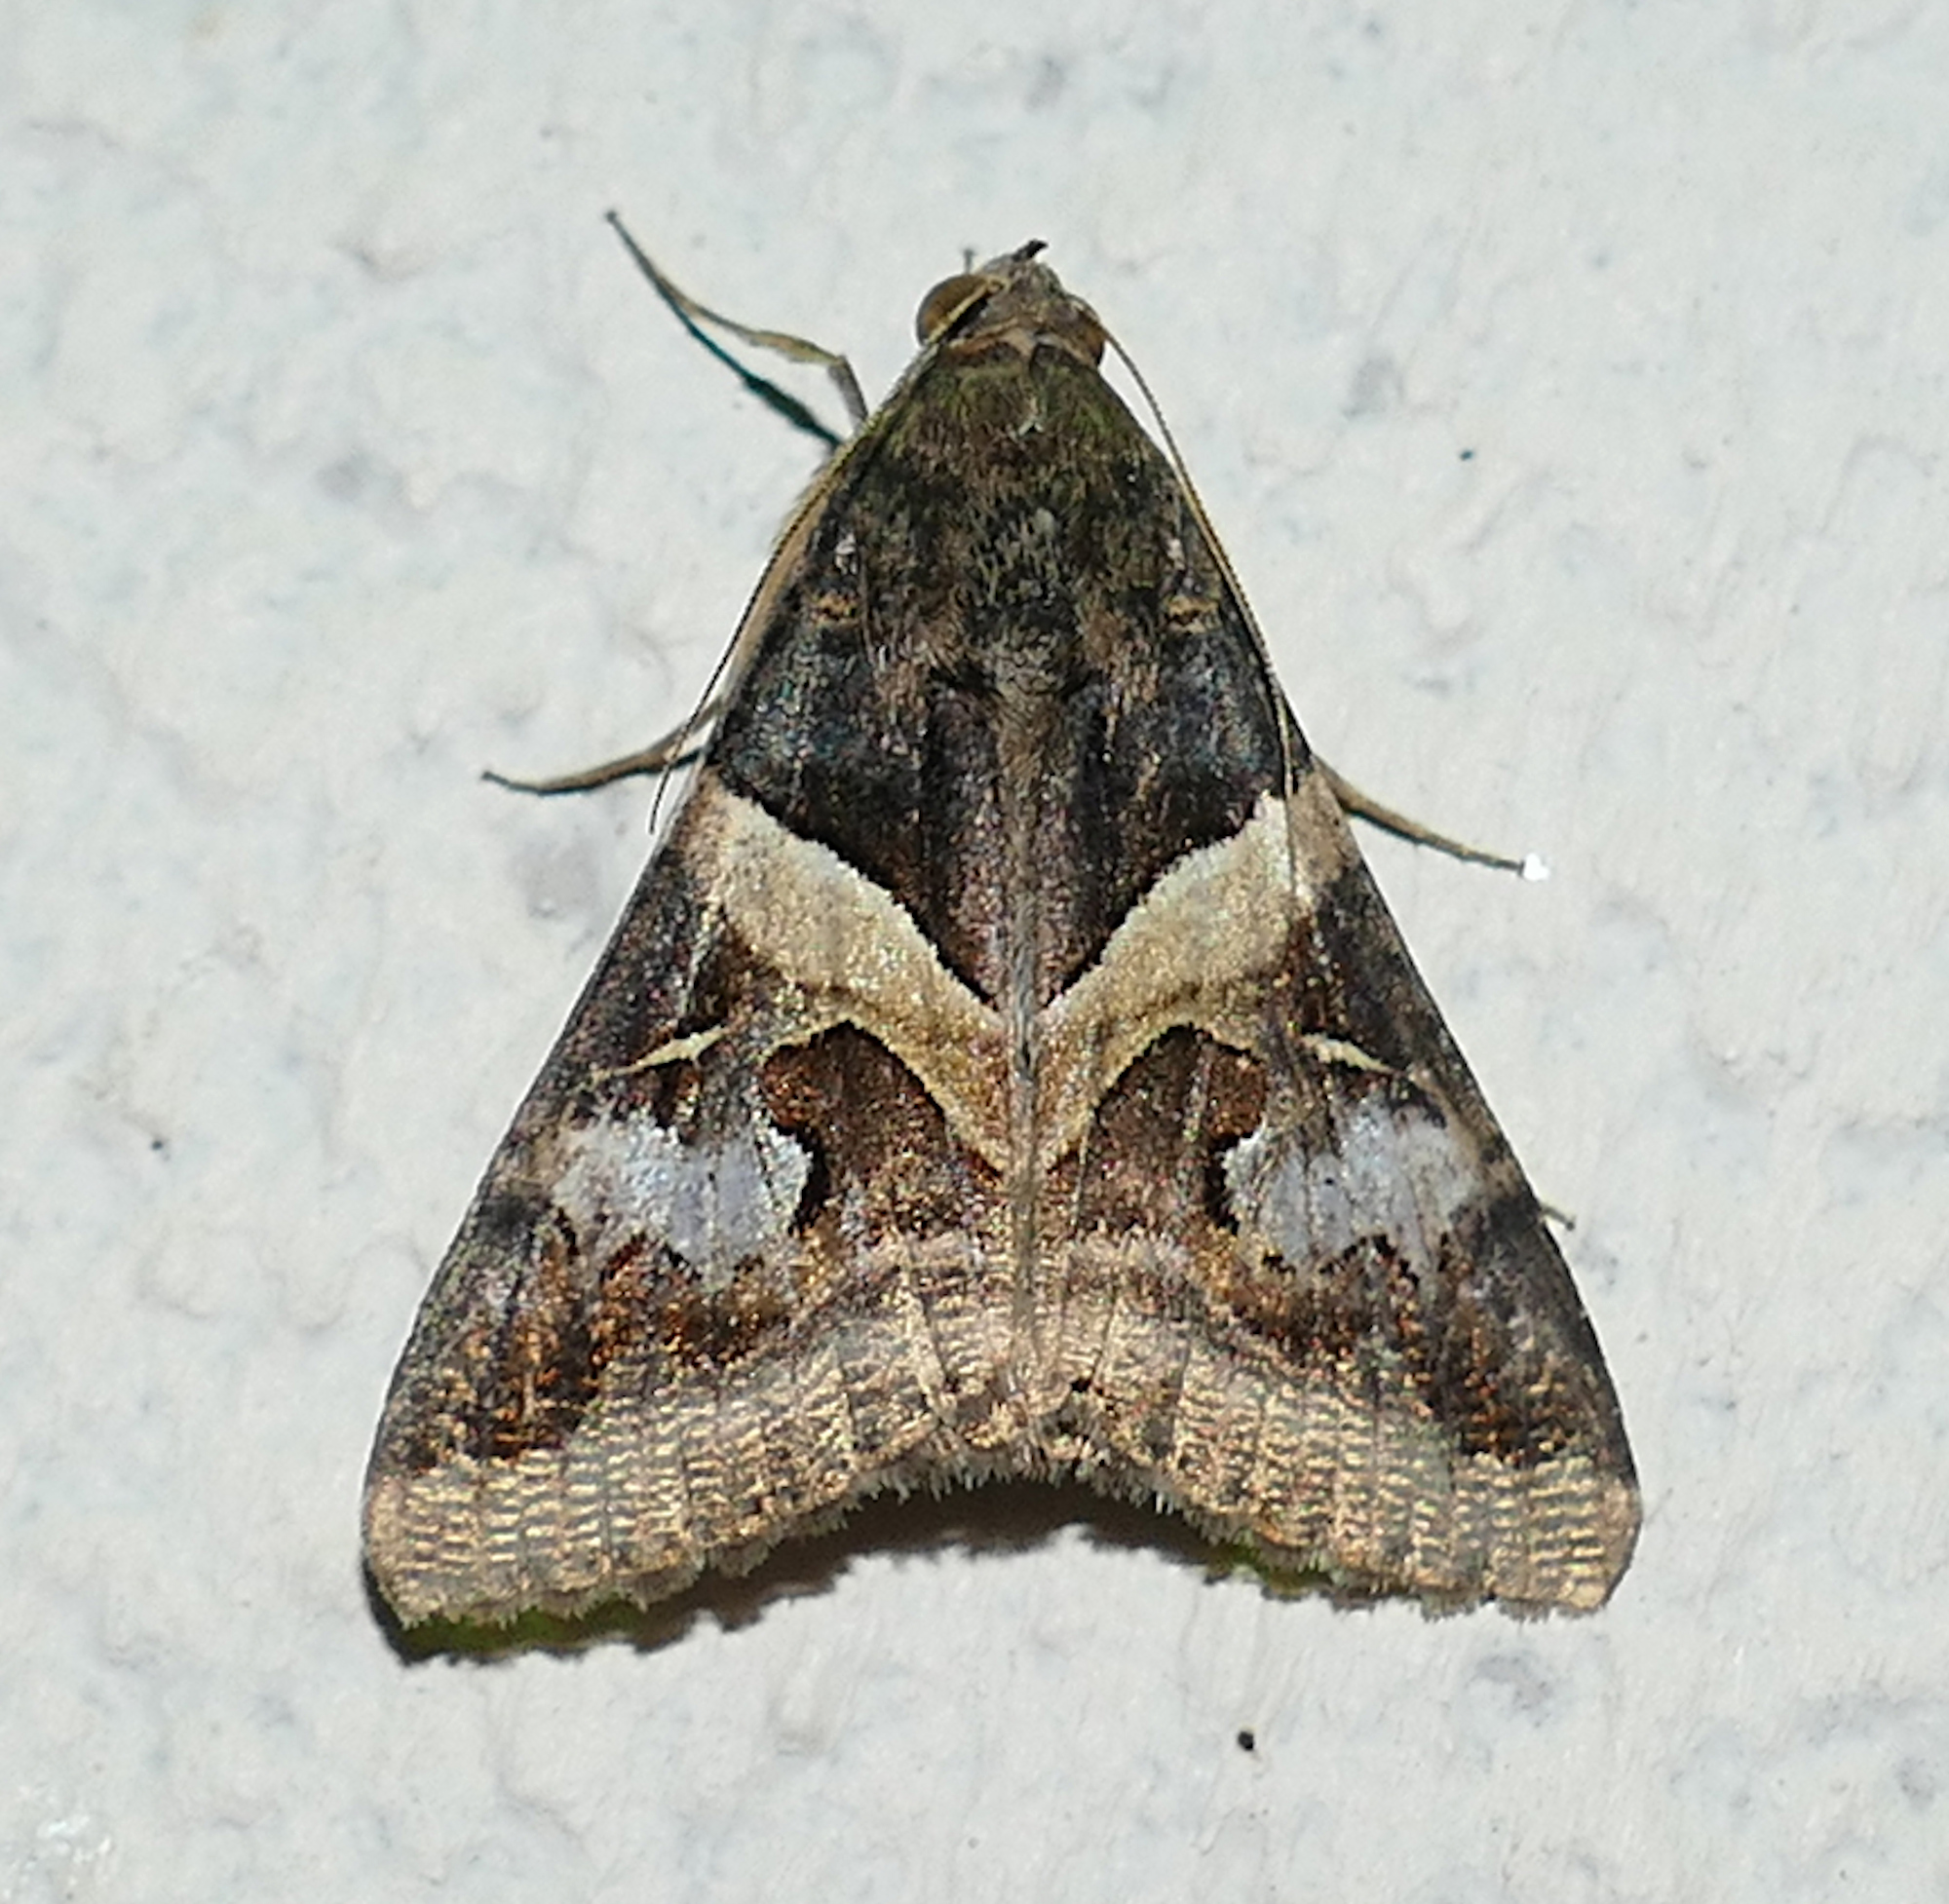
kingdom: Animalia
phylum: Arthropoda
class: Insecta
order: Lepidoptera
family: Erebidae
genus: Melipotis
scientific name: Melipotis indomita
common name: Moth
